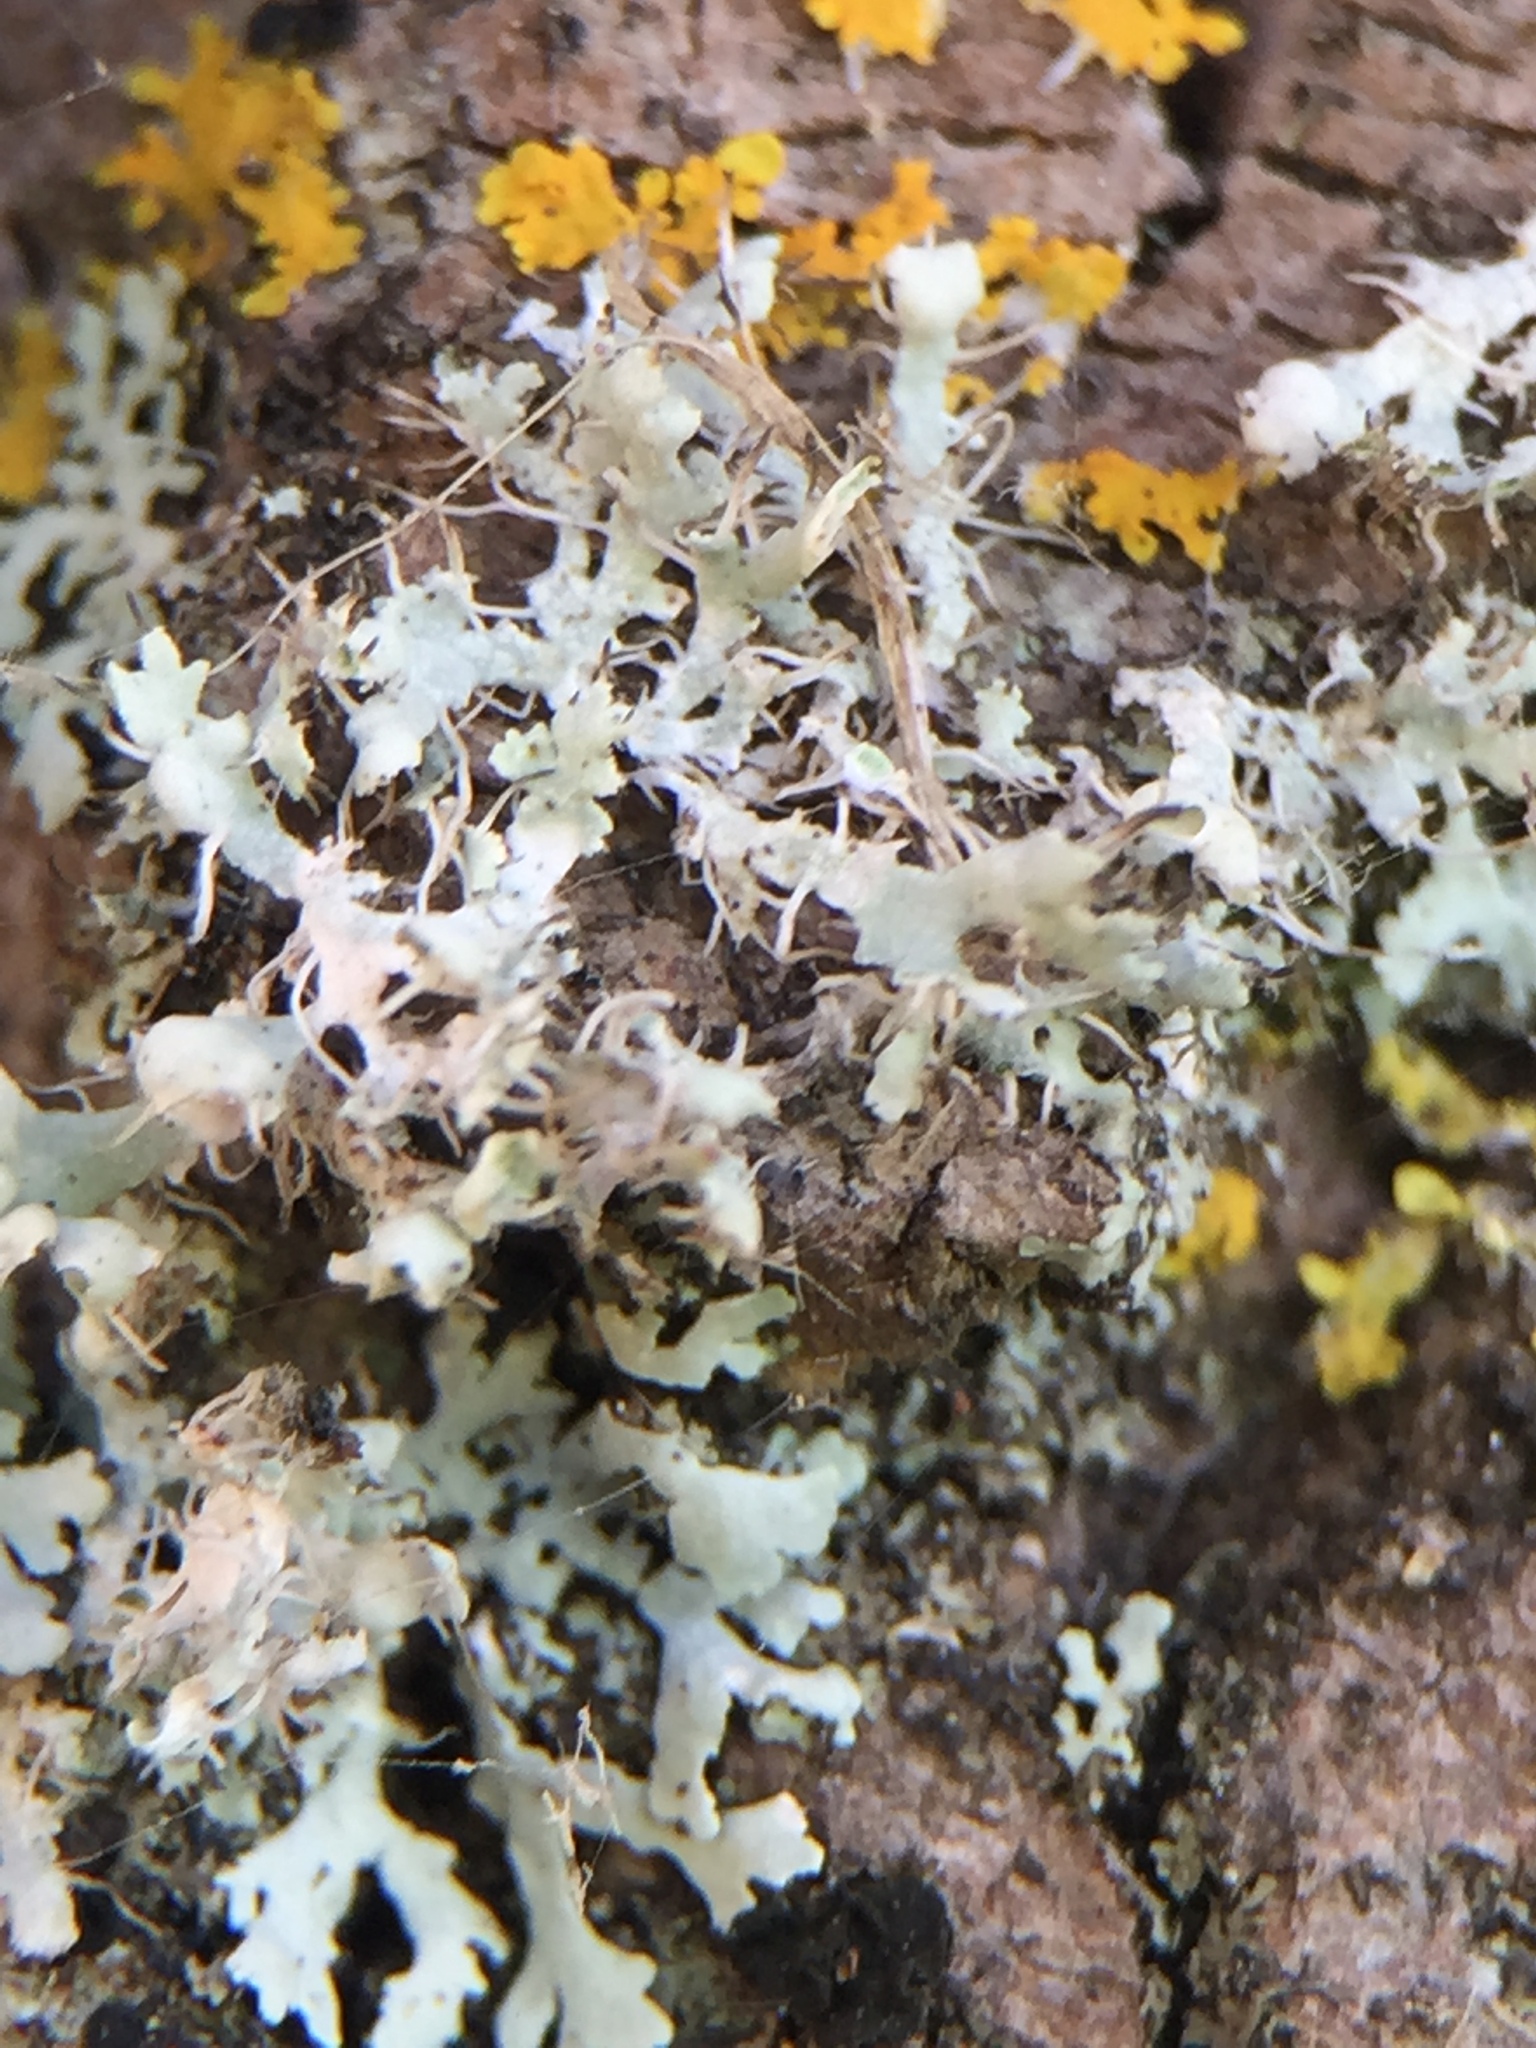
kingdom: Fungi
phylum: Ascomycota
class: Lecanoromycetes
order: Caliciales
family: Physciaceae
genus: Physcia
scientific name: Physcia adscendens
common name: Hooded rosette lichen
